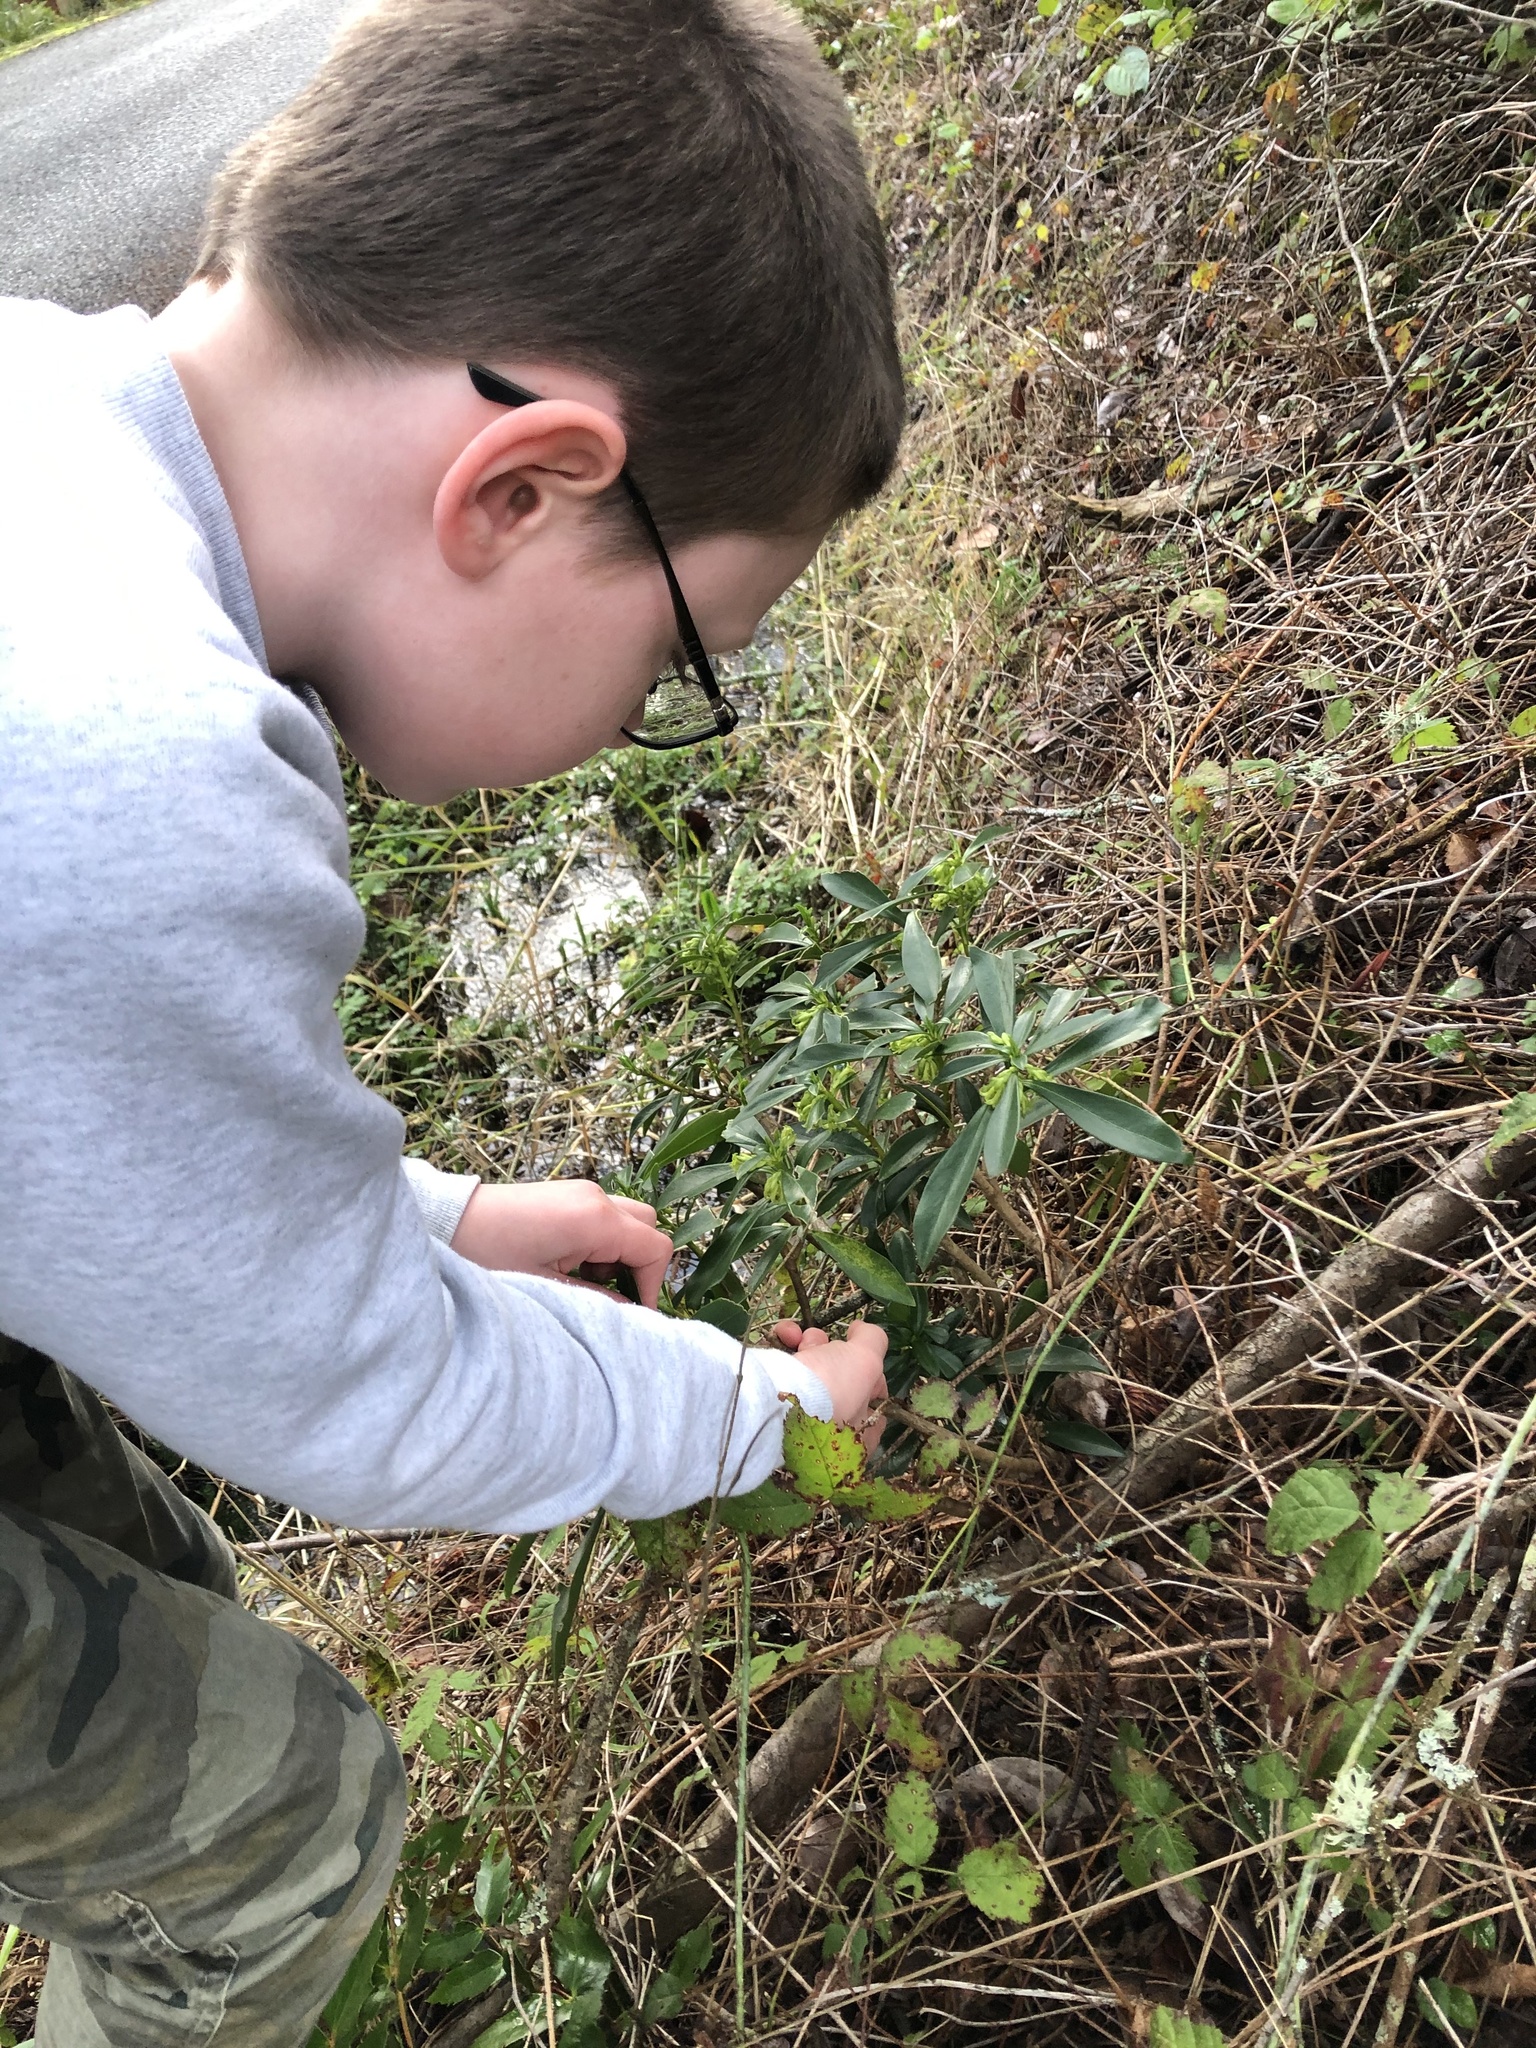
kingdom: Plantae
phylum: Tracheophyta
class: Magnoliopsida
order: Malvales
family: Thymelaeaceae
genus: Daphne
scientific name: Daphne laureola
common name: Spurge-laurel
